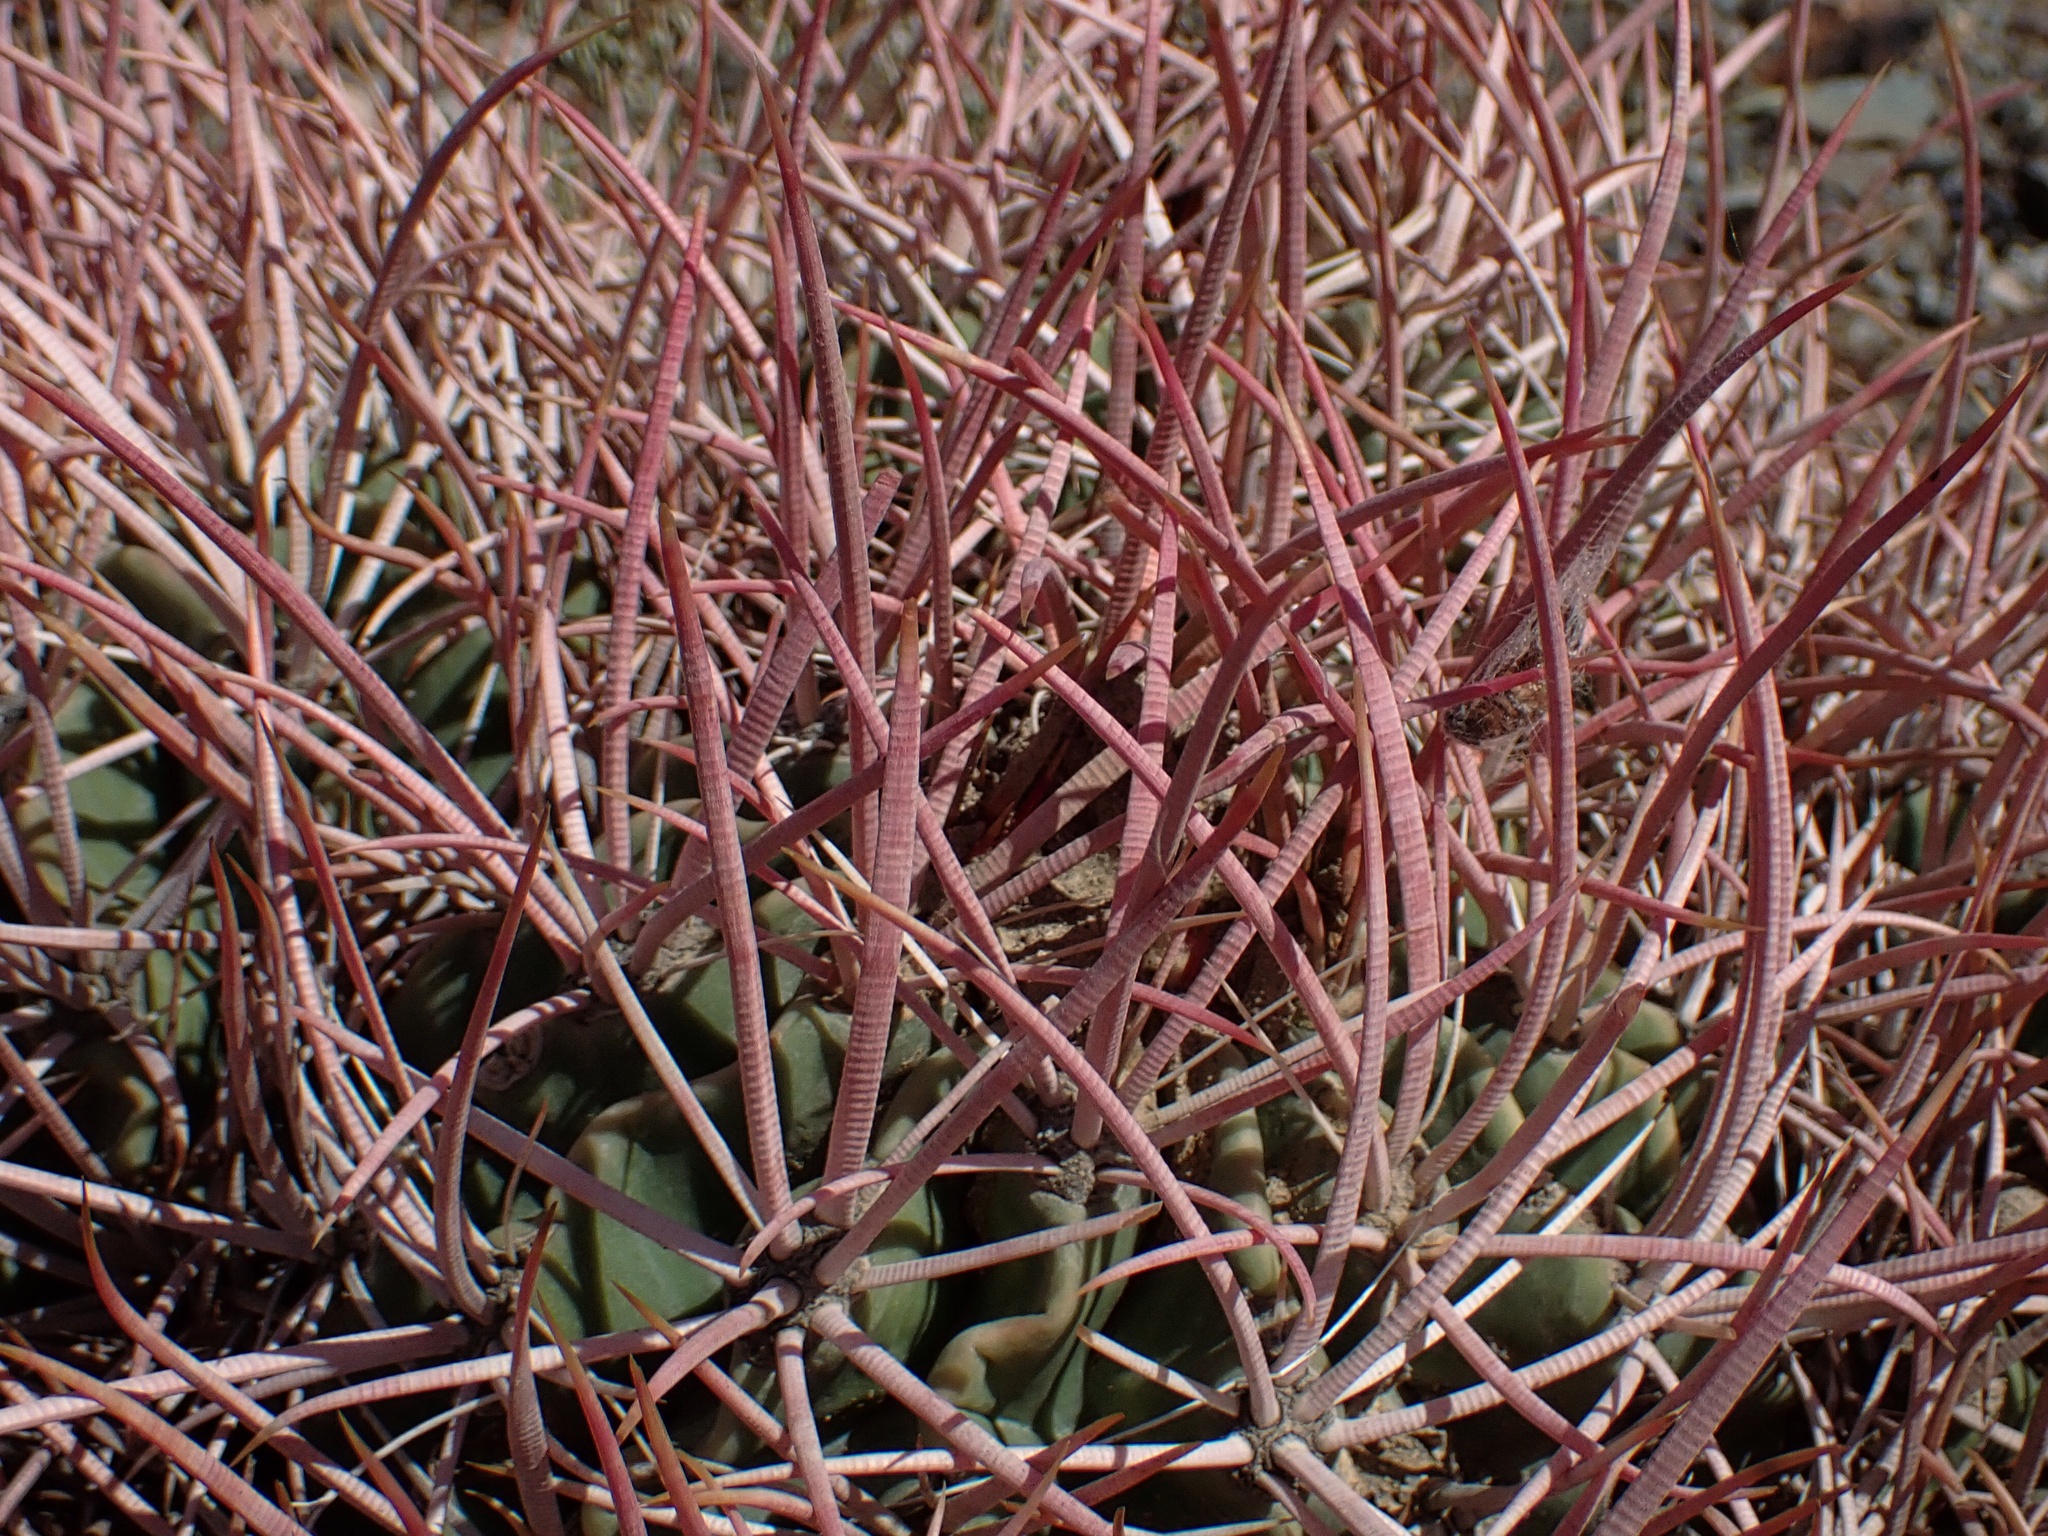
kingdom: Plantae
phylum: Tracheophyta
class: Magnoliopsida
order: Caryophyllales
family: Cactaceae
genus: Echinocactus
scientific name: Echinocactus polycephalus
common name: Cottontop cactus
